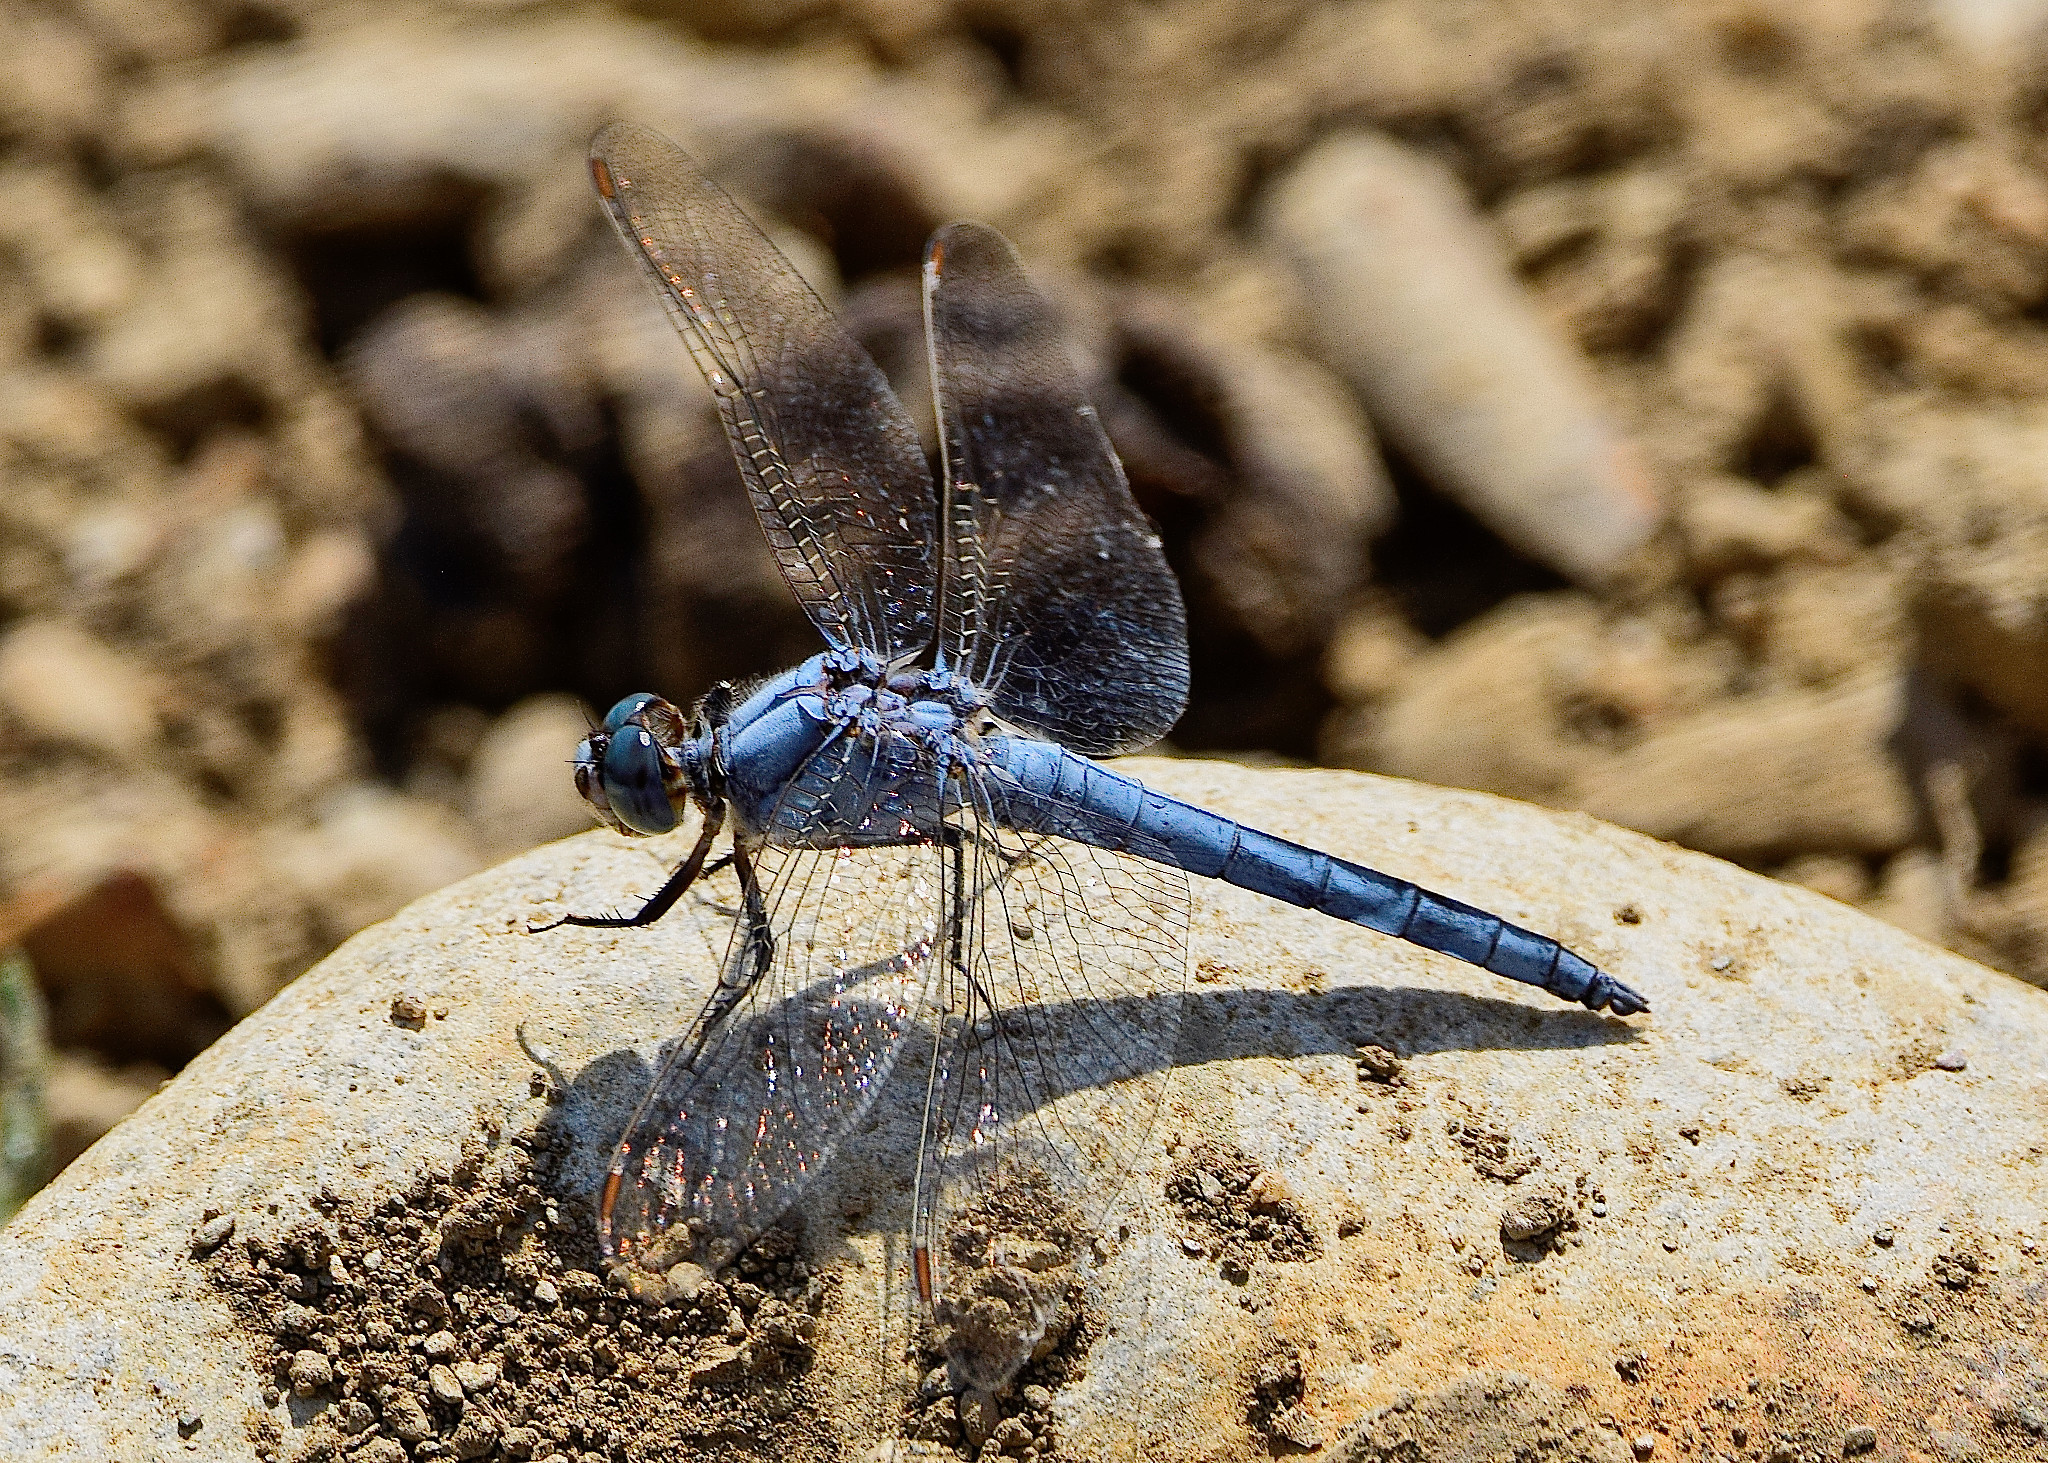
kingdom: Animalia
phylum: Arthropoda
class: Insecta
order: Odonata
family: Libellulidae
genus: Orthetrum
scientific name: Orthetrum brunneum
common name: Southern skimmer
